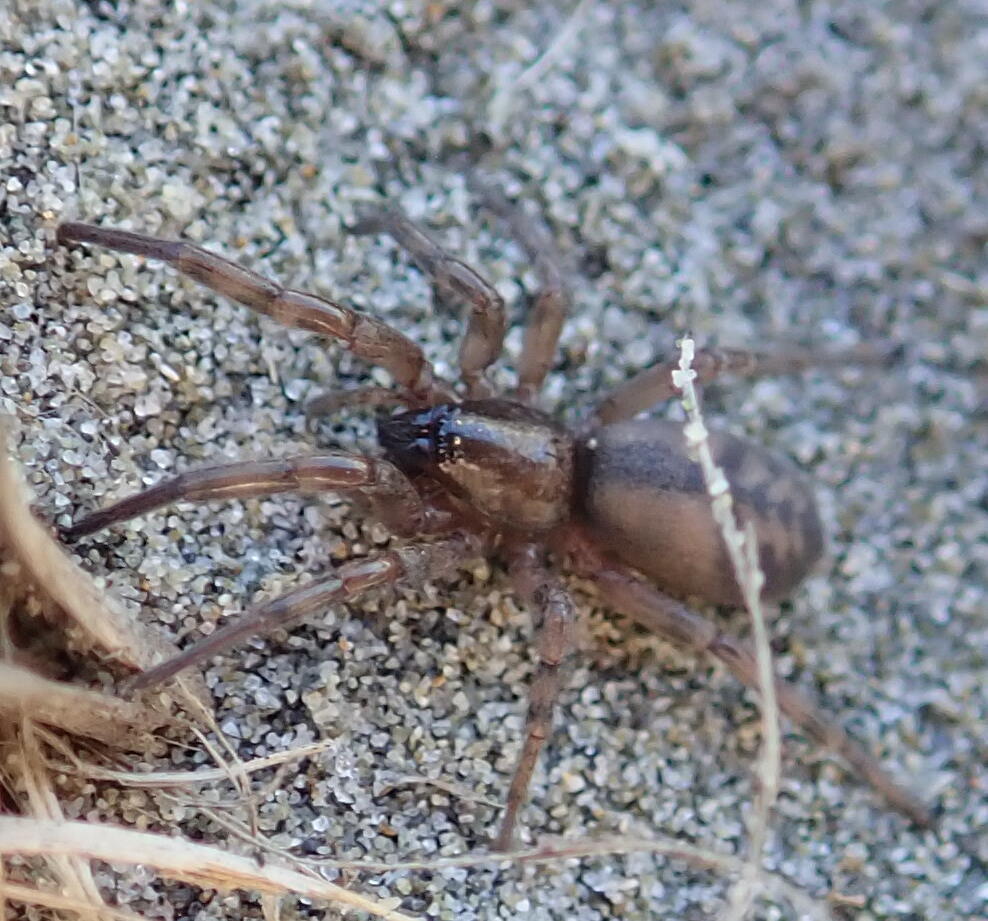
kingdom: Animalia
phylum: Arthropoda
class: Arachnida
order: Araneae
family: Gnaphosidae
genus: Intruda
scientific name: Intruda signata
